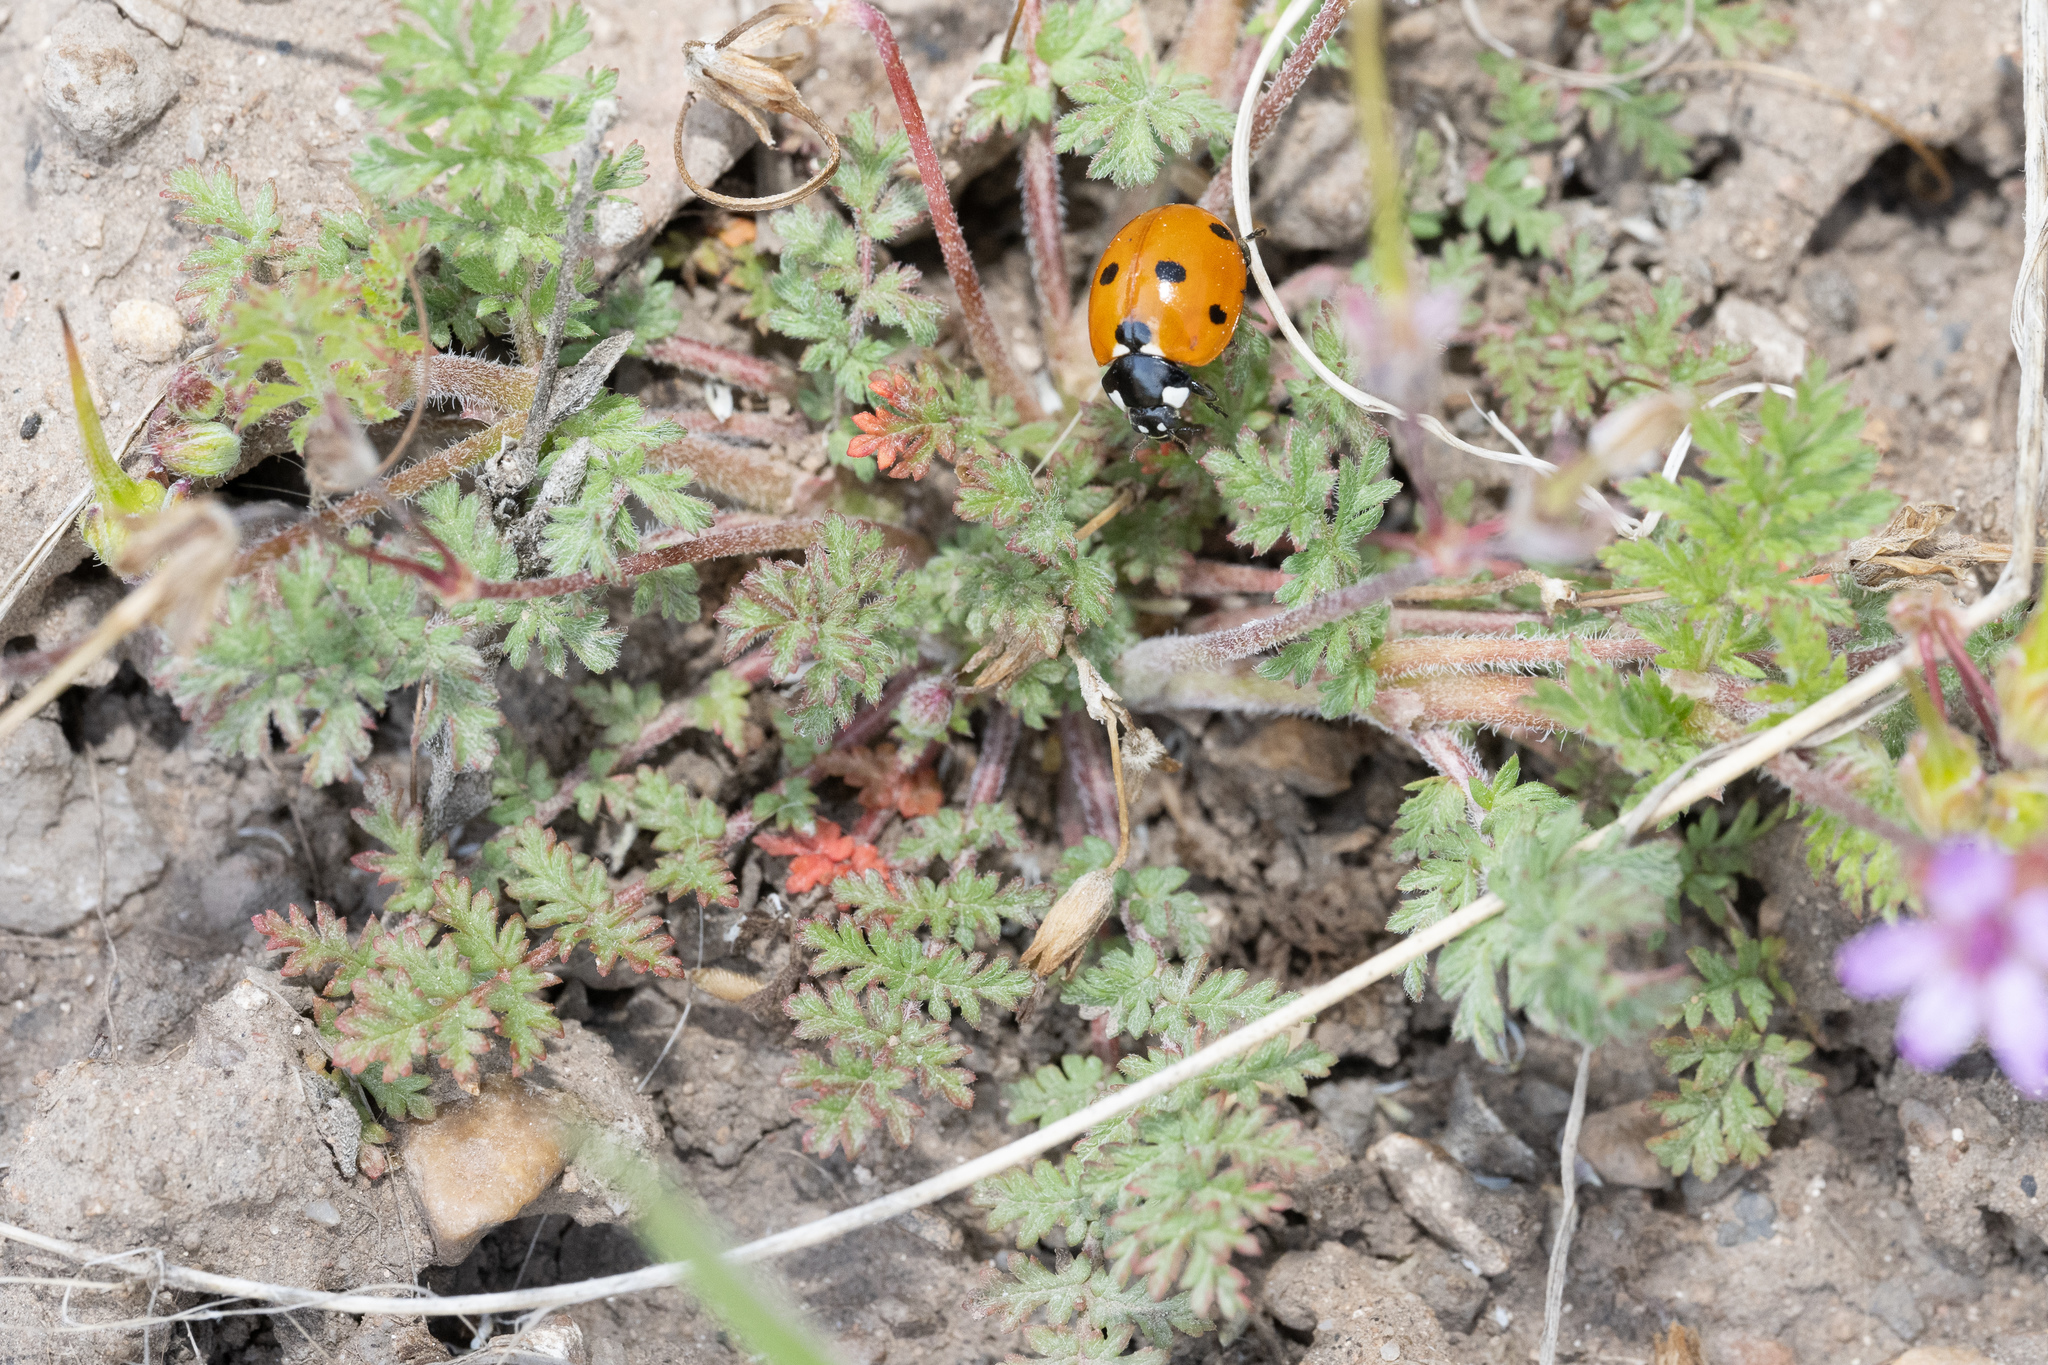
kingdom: Animalia
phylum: Arthropoda
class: Insecta
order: Coleoptera
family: Coccinellidae
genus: Coccinella
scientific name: Coccinella septempunctata
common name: Sevenspotted lady beetle
